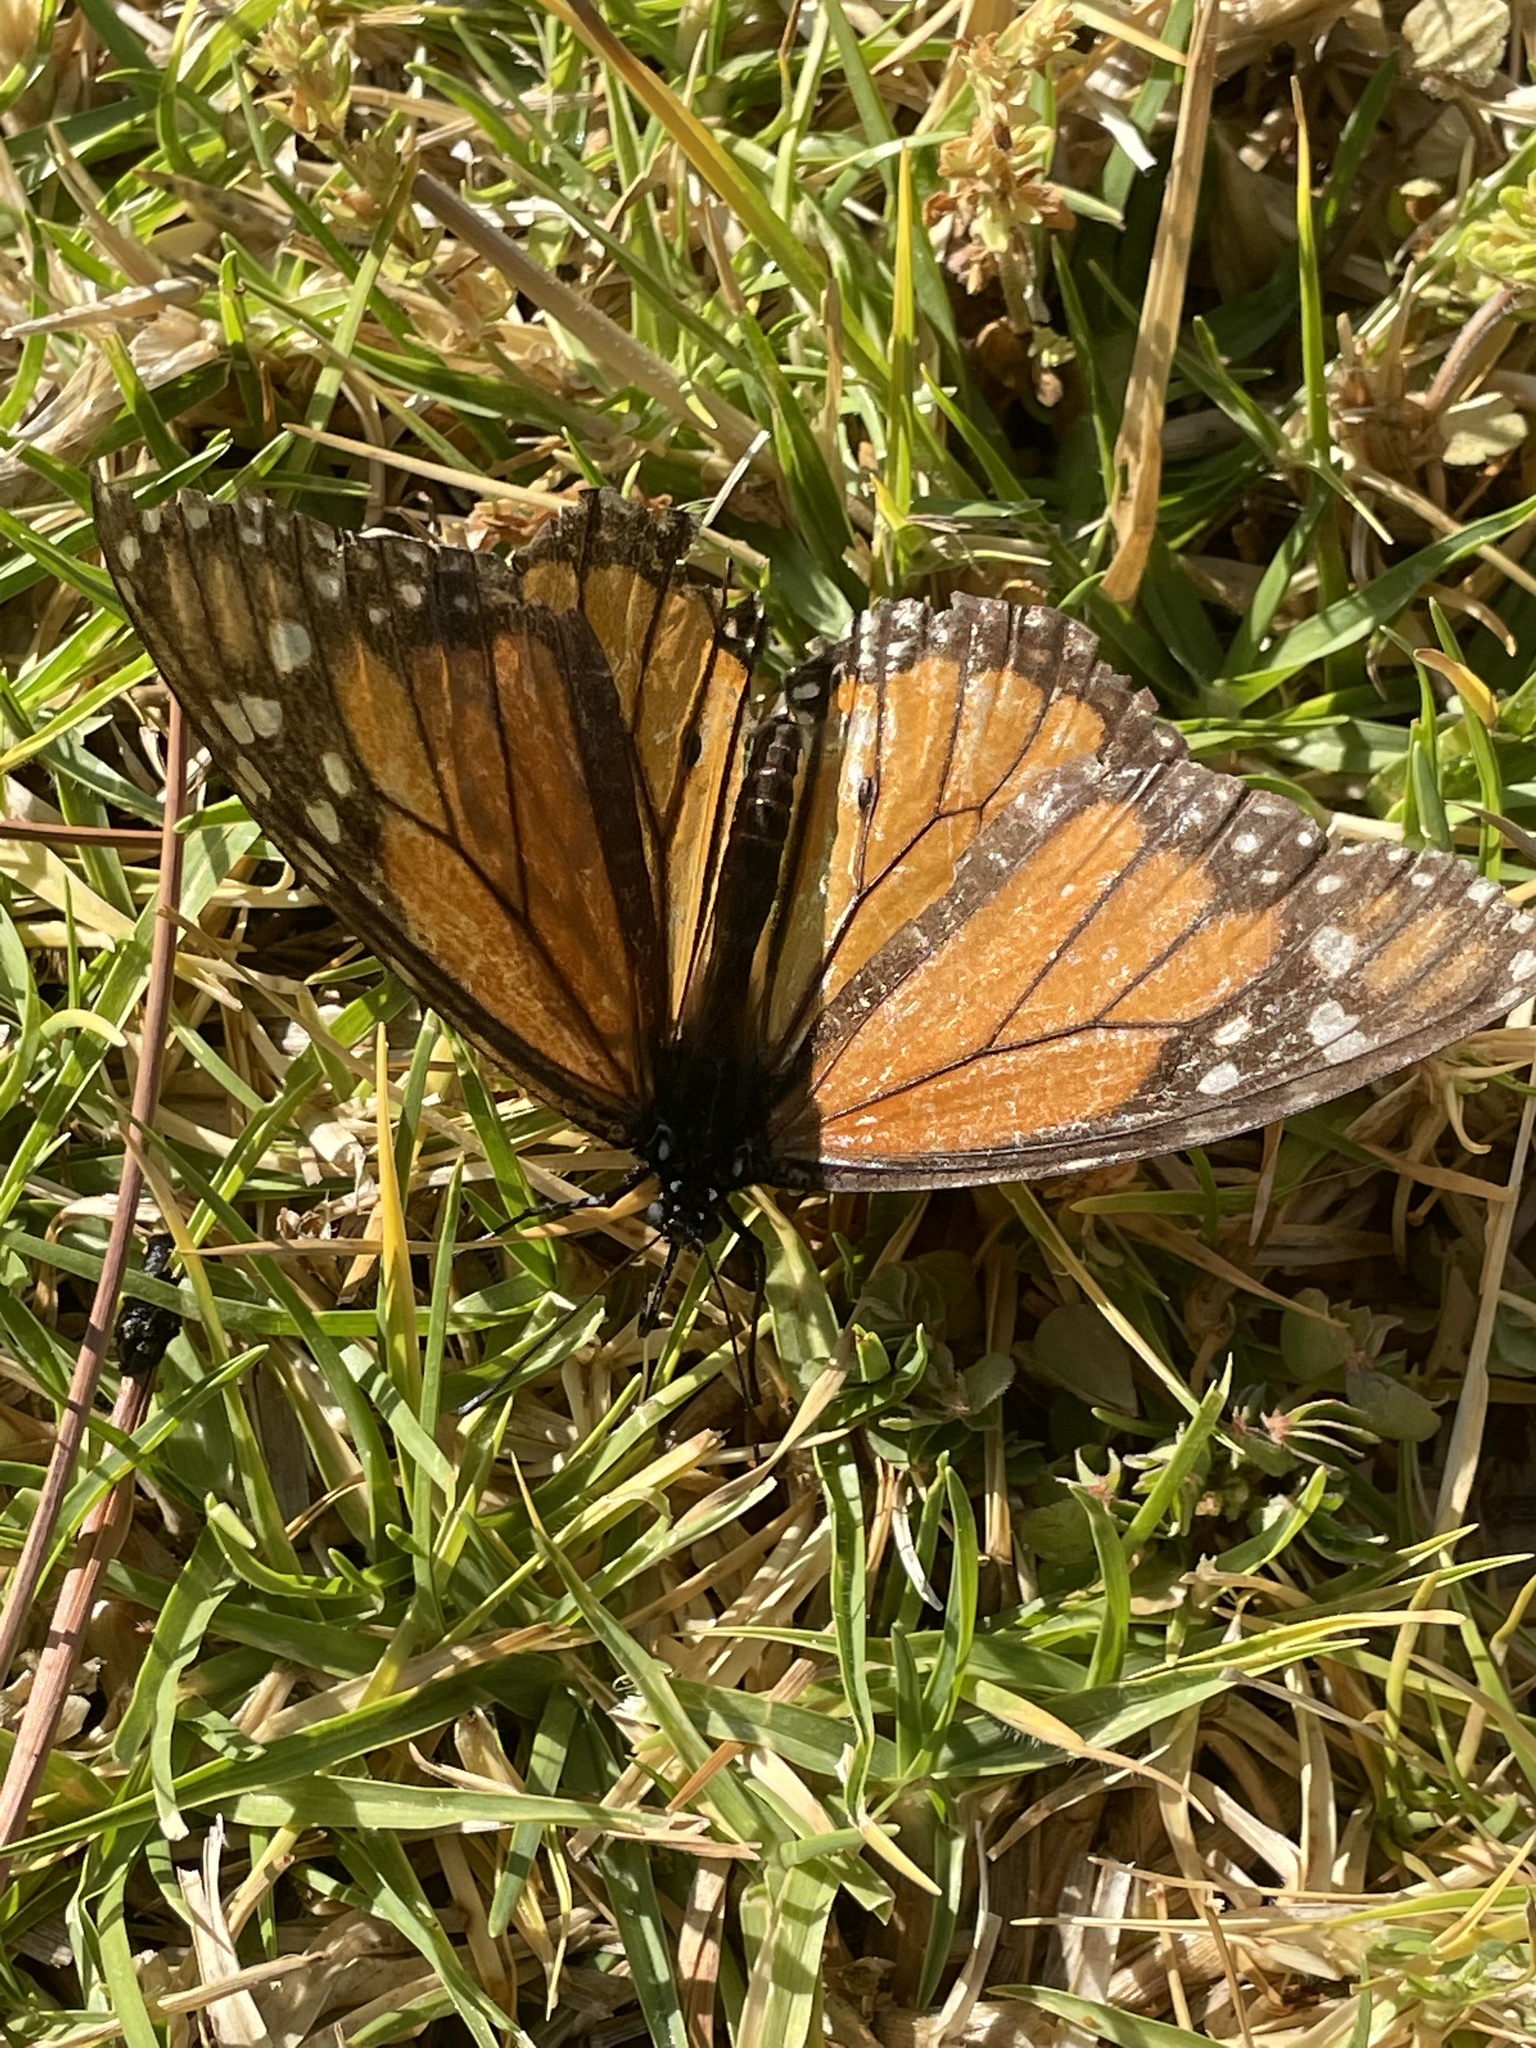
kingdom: Animalia
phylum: Arthropoda
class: Insecta
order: Lepidoptera
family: Nymphalidae
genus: Danaus
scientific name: Danaus plexippus
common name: Monarch
